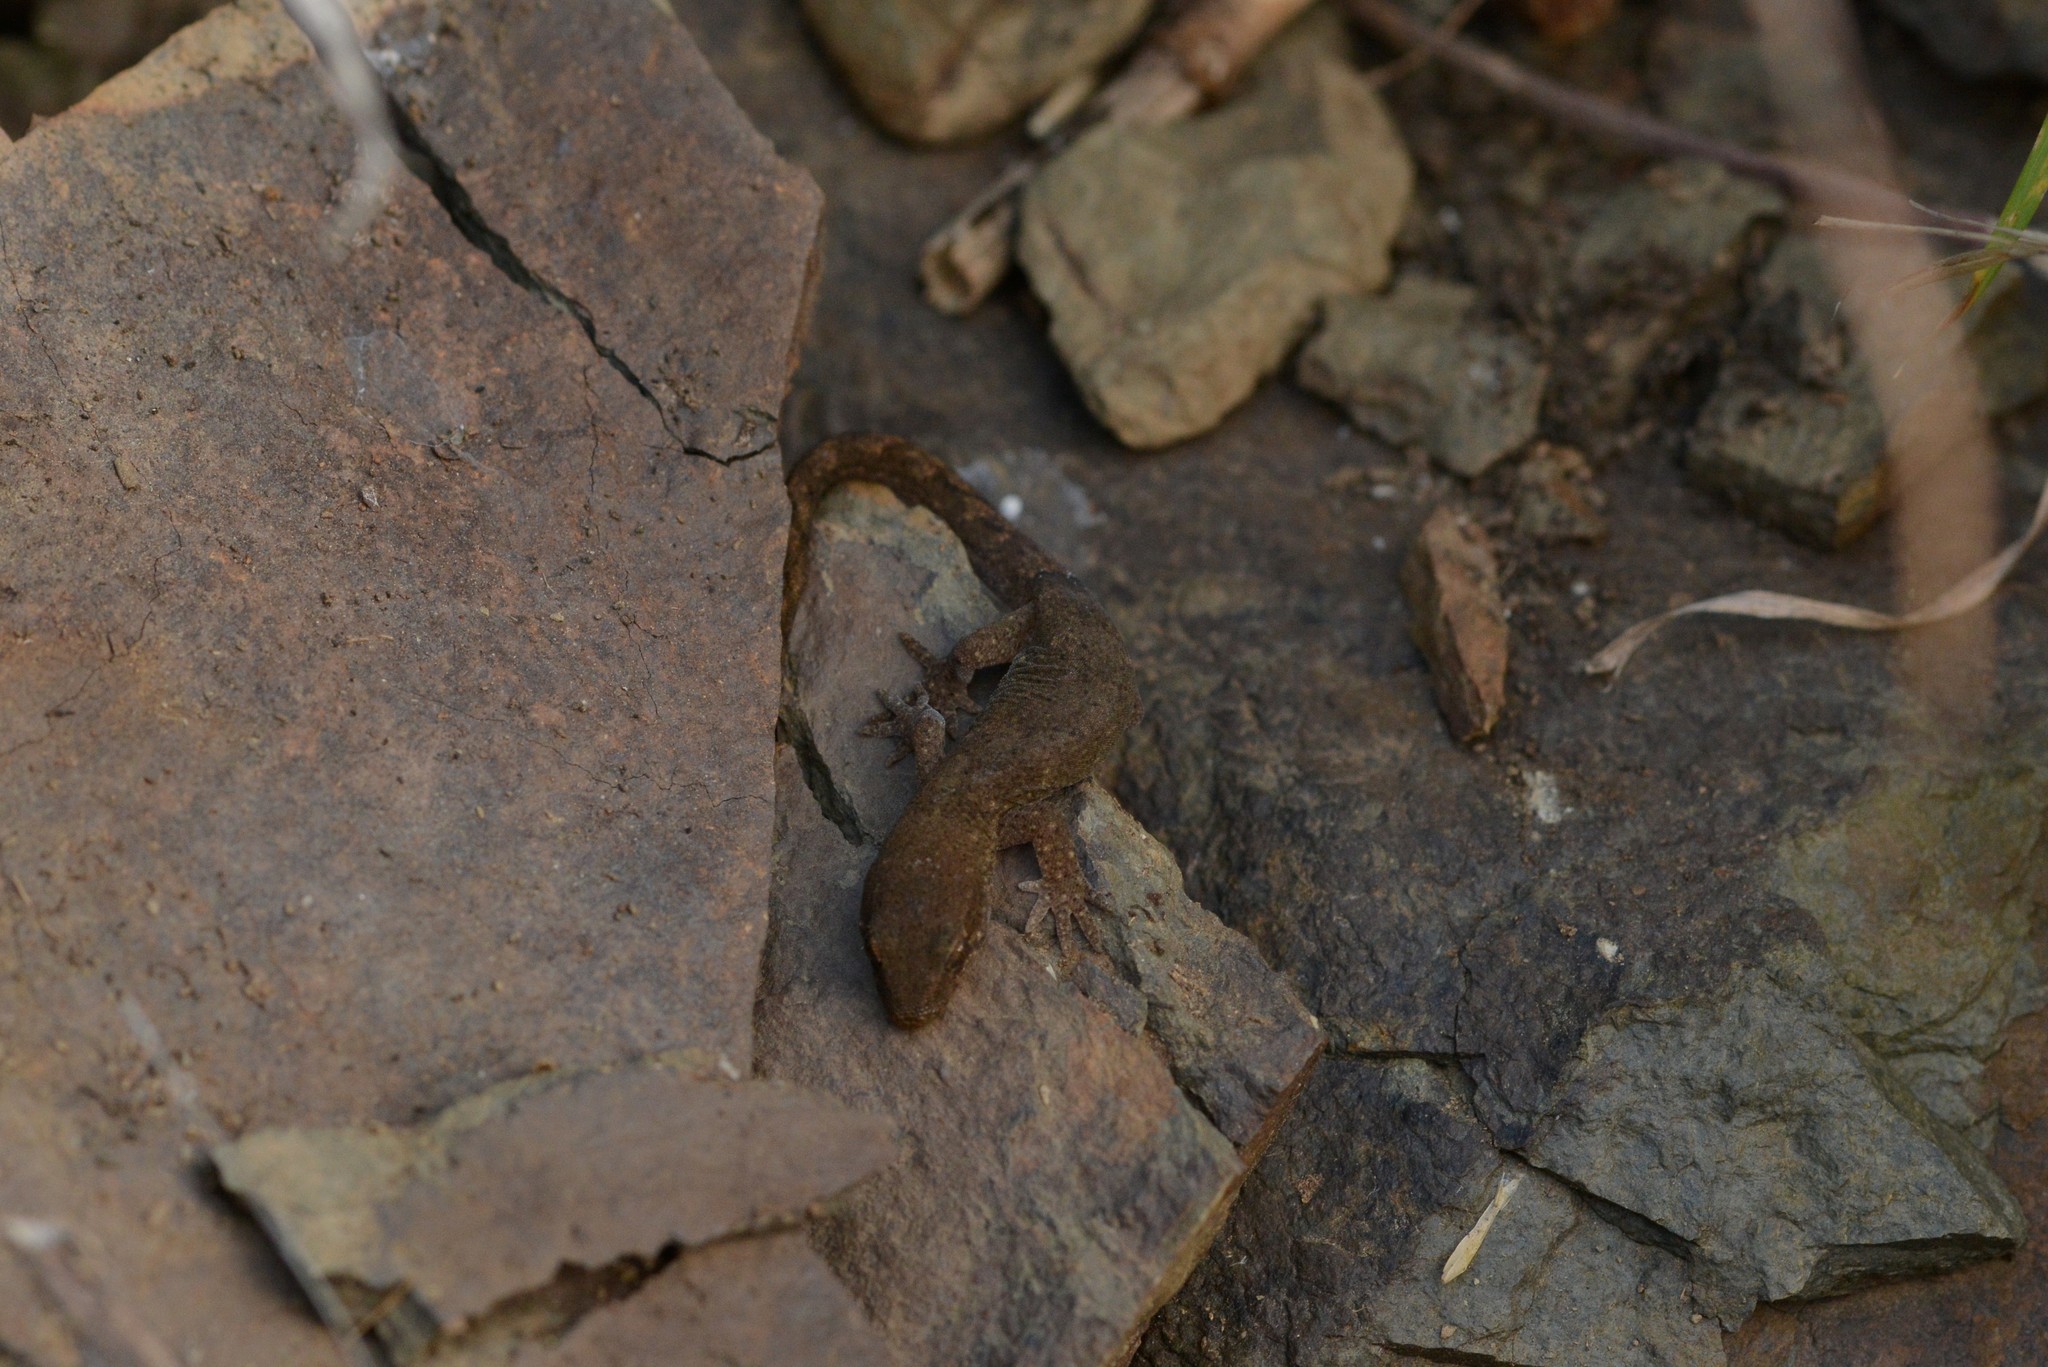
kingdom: Animalia
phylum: Chordata
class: Squamata
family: Diplodactylidae
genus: Woodworthia
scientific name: Woodworthia
